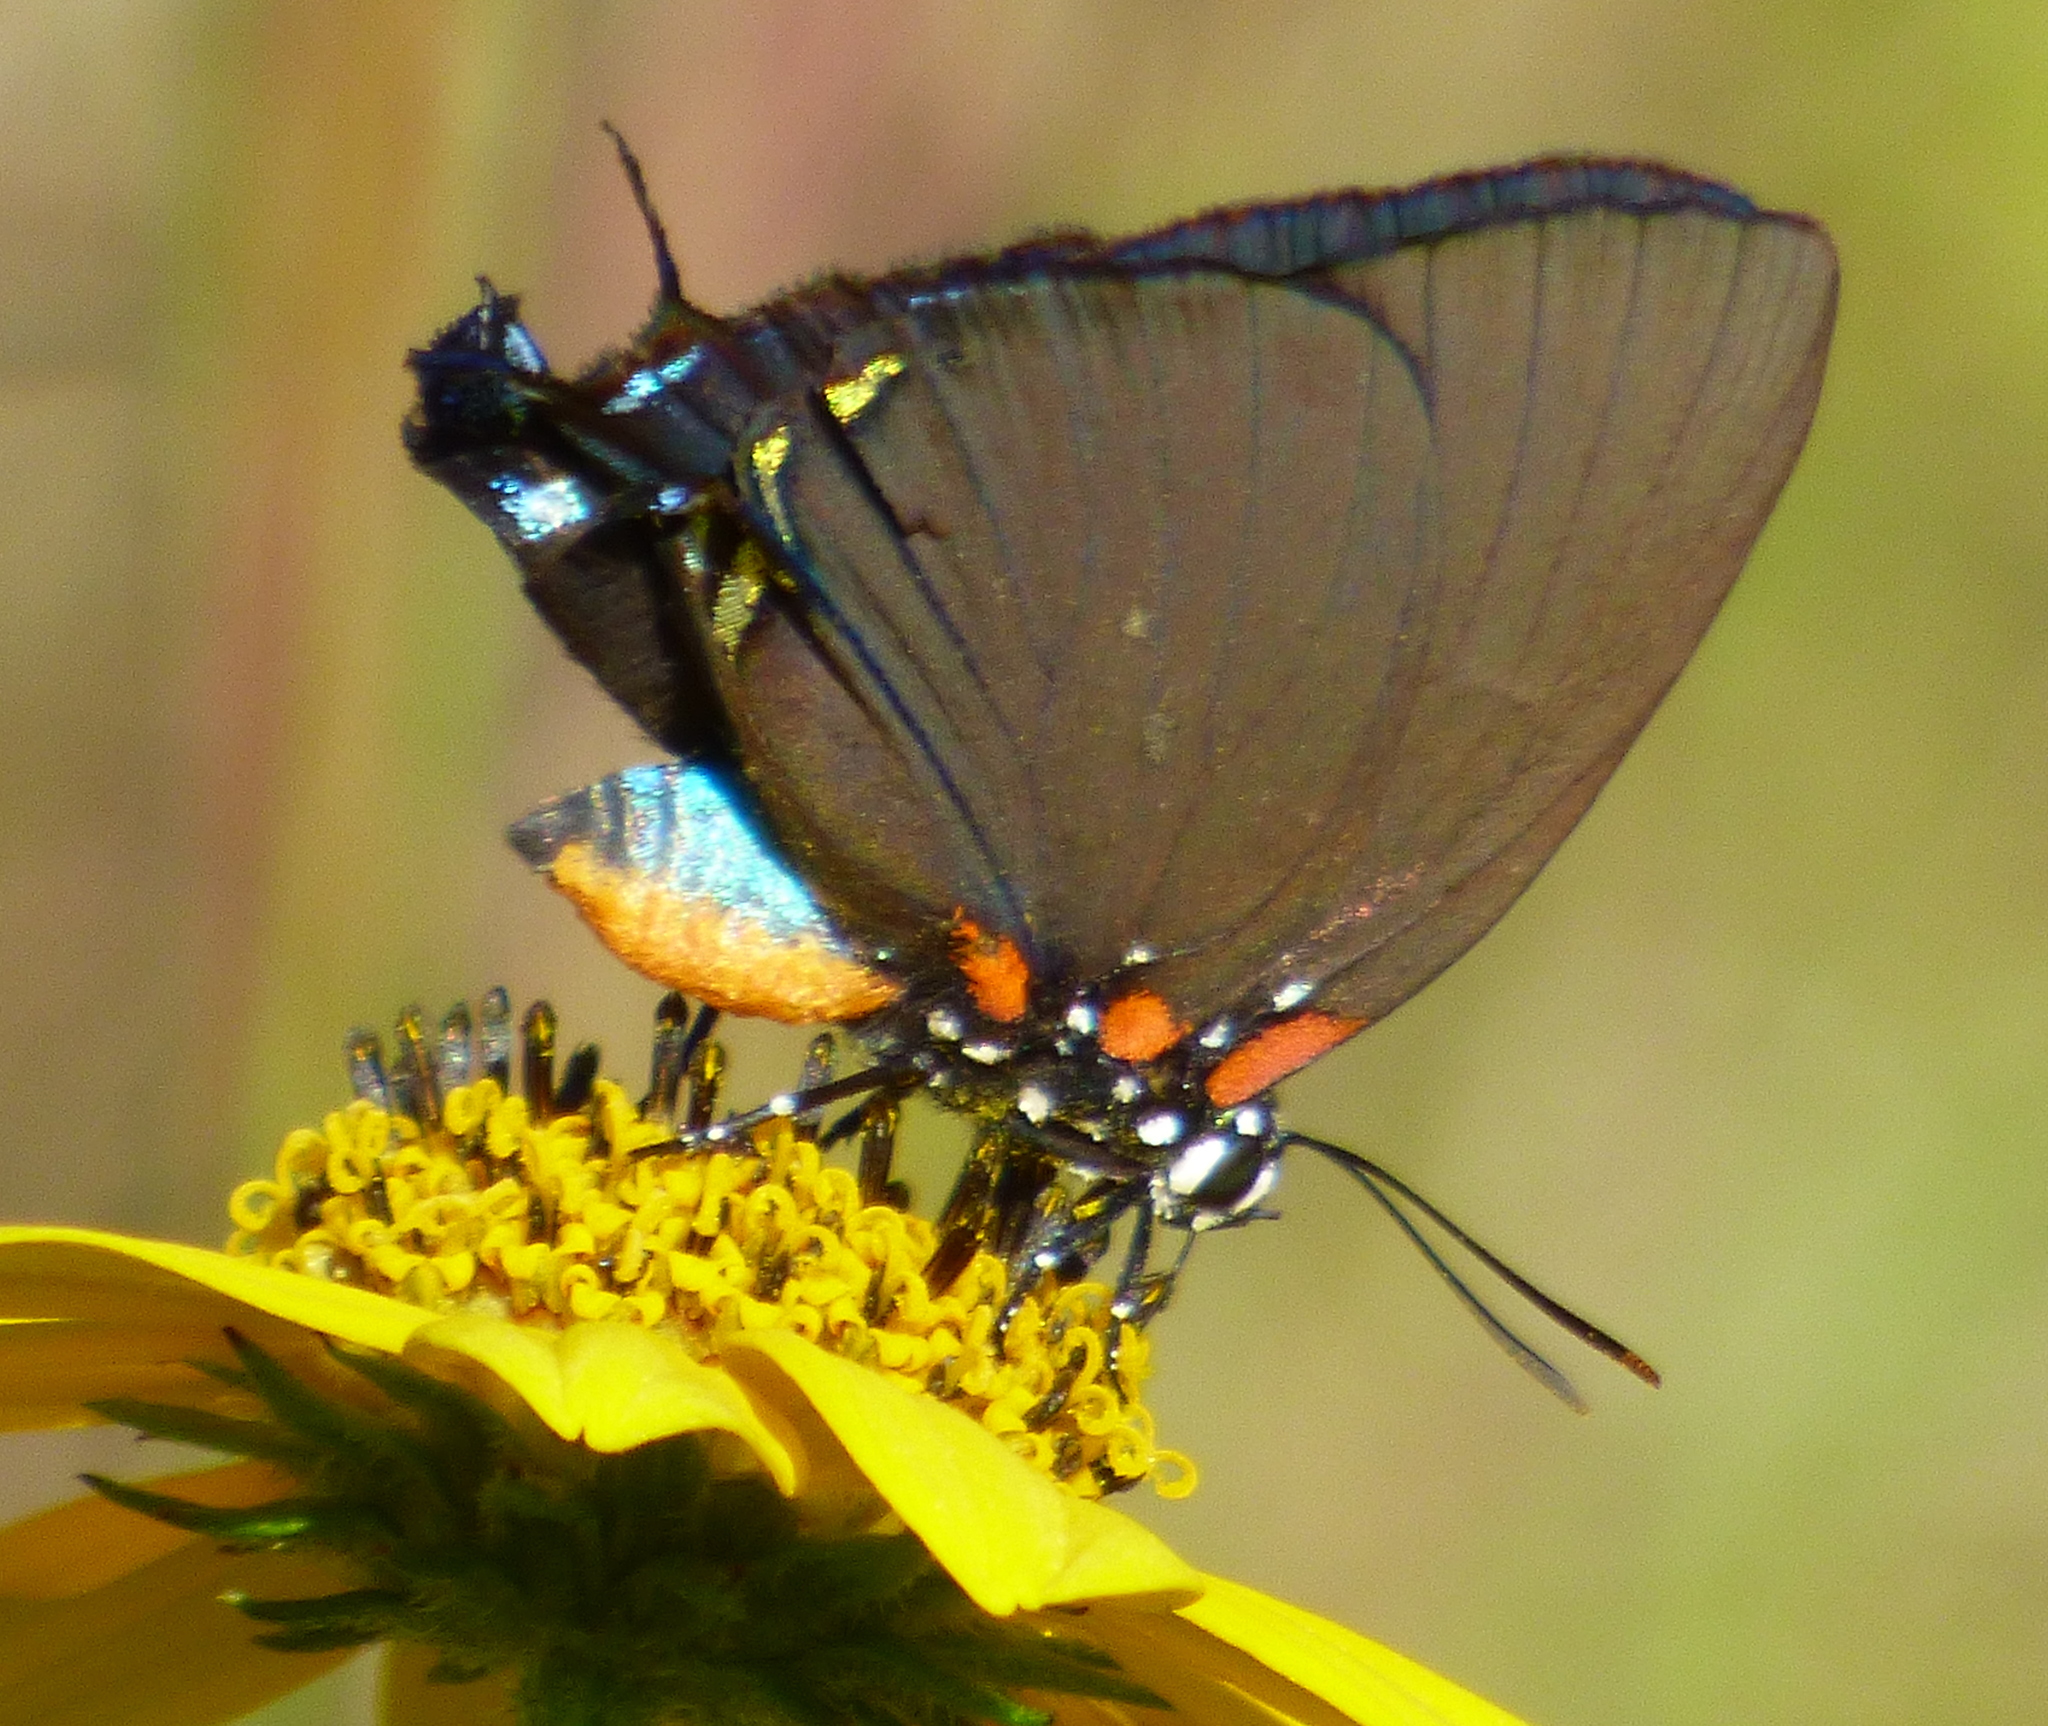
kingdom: Animalia
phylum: Arthropoda
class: Insecta
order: Lepidoptera
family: Lycaenidae
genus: Atlides
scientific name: Atlides halesus
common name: Great purple hairstreak
